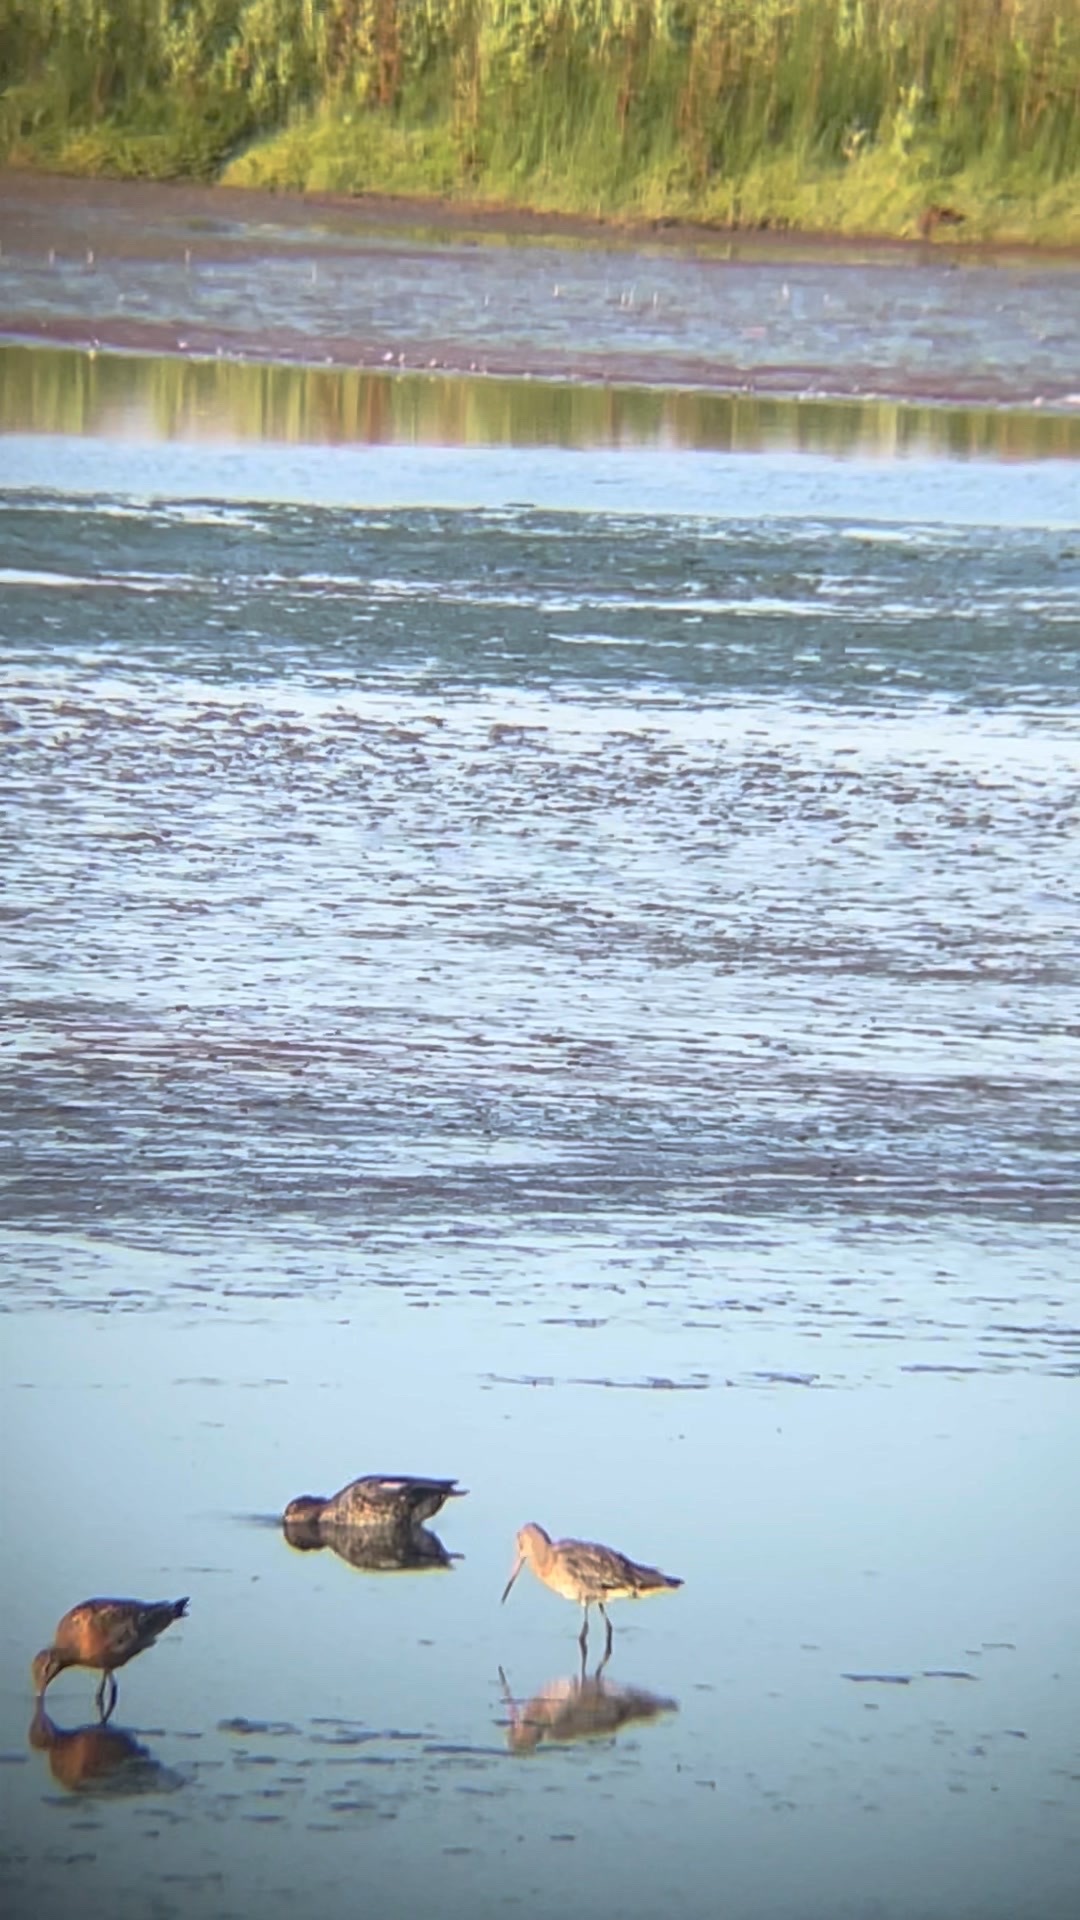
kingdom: Animalia
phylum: Chordata
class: Aves
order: Charadriiformes
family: Scolopacidae
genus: Limosa
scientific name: Limosa limosa
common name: Black-tailed godwit
